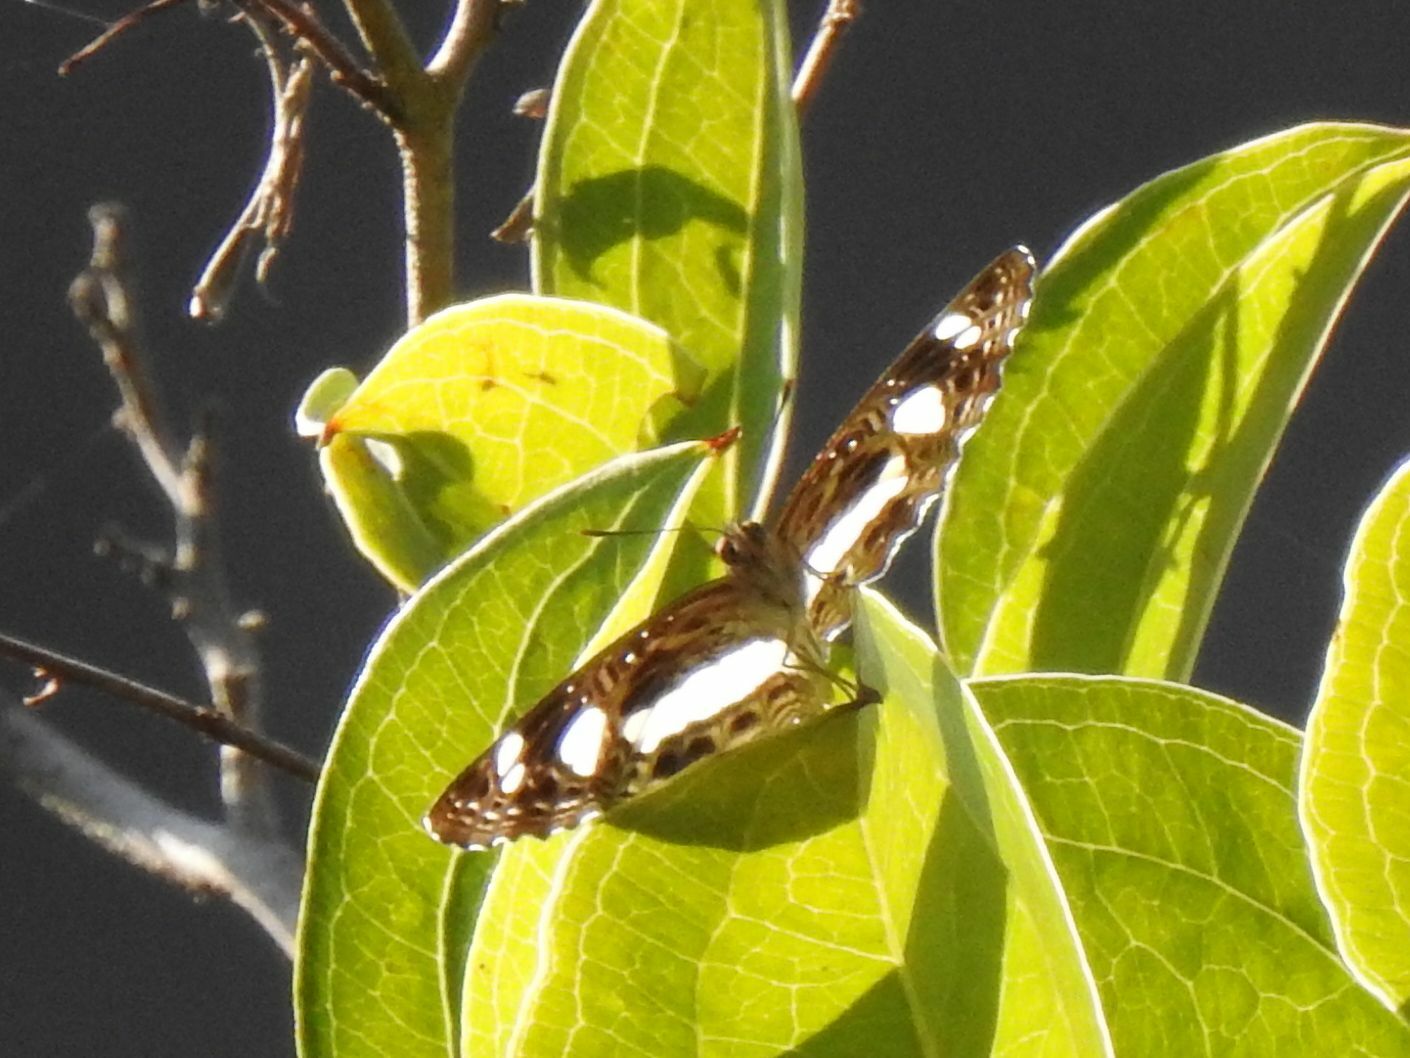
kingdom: Animalia
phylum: Arthropoda
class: Insecta
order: Lepidoptera
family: Nymphalidae
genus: Neptis
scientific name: Neptis saclava
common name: Small spotted sailor
